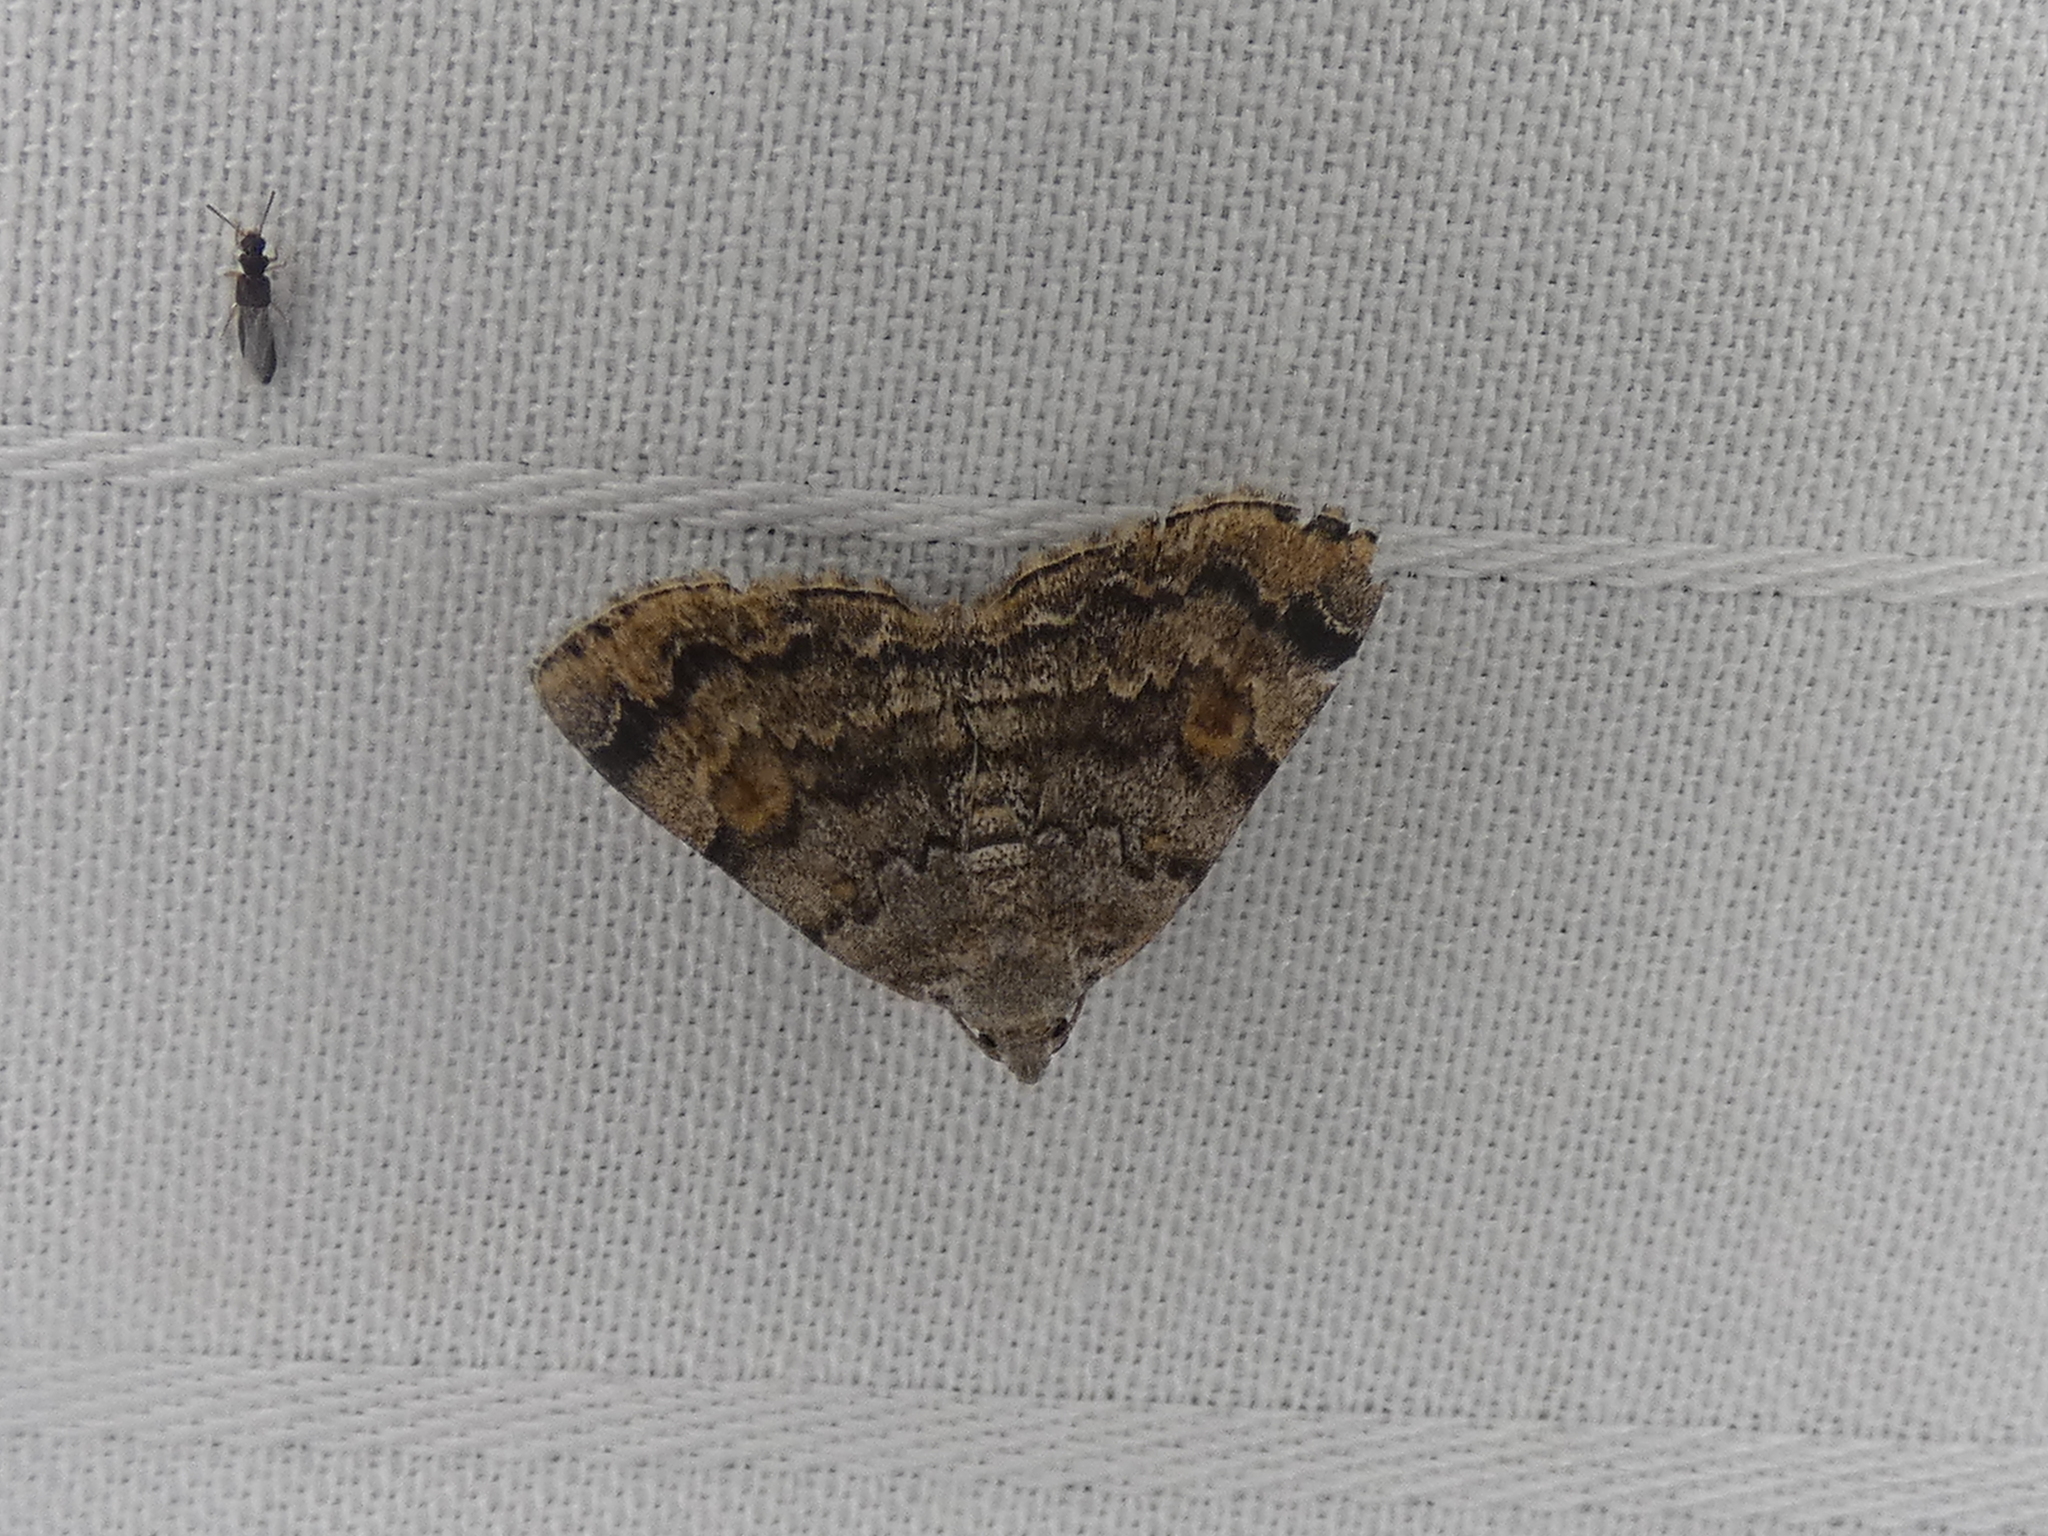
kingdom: Animalia
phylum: Arthropoda
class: Insecta
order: Lepidoptera
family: Erebidae
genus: Idia
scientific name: Idia americalis
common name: American idia moth
